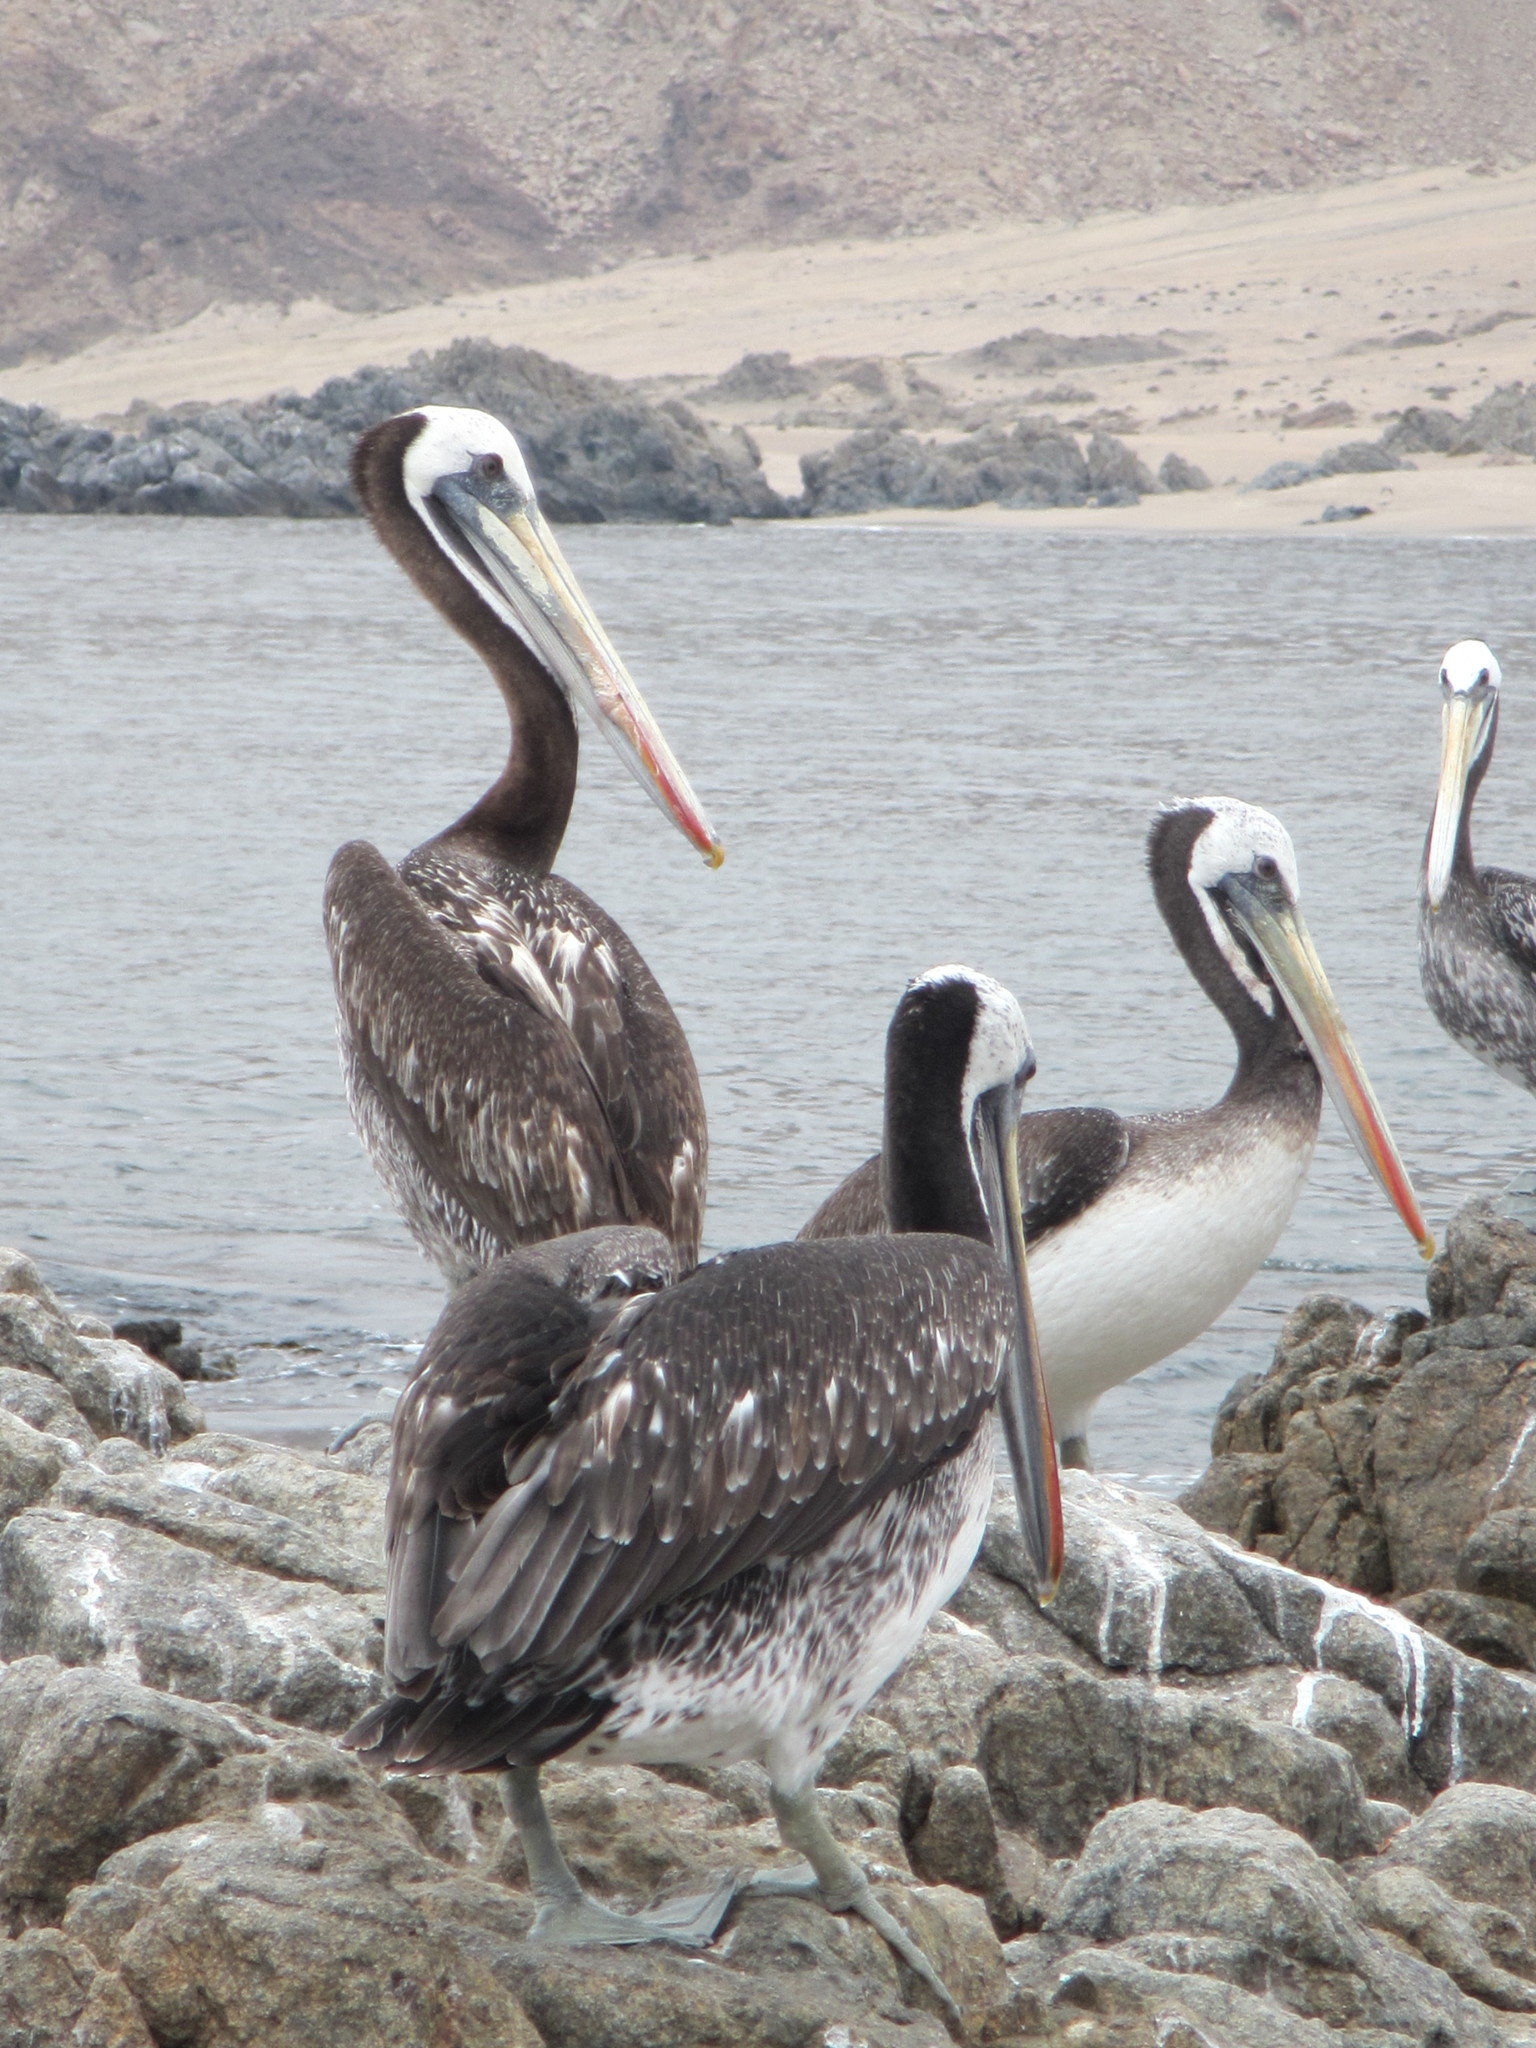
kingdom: Animalia
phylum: Chordata
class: Aves
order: Pelecaniformes
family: Pelecanidae
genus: Pelecanus
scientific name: Pelecanus thagus
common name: Peruvian pelican
